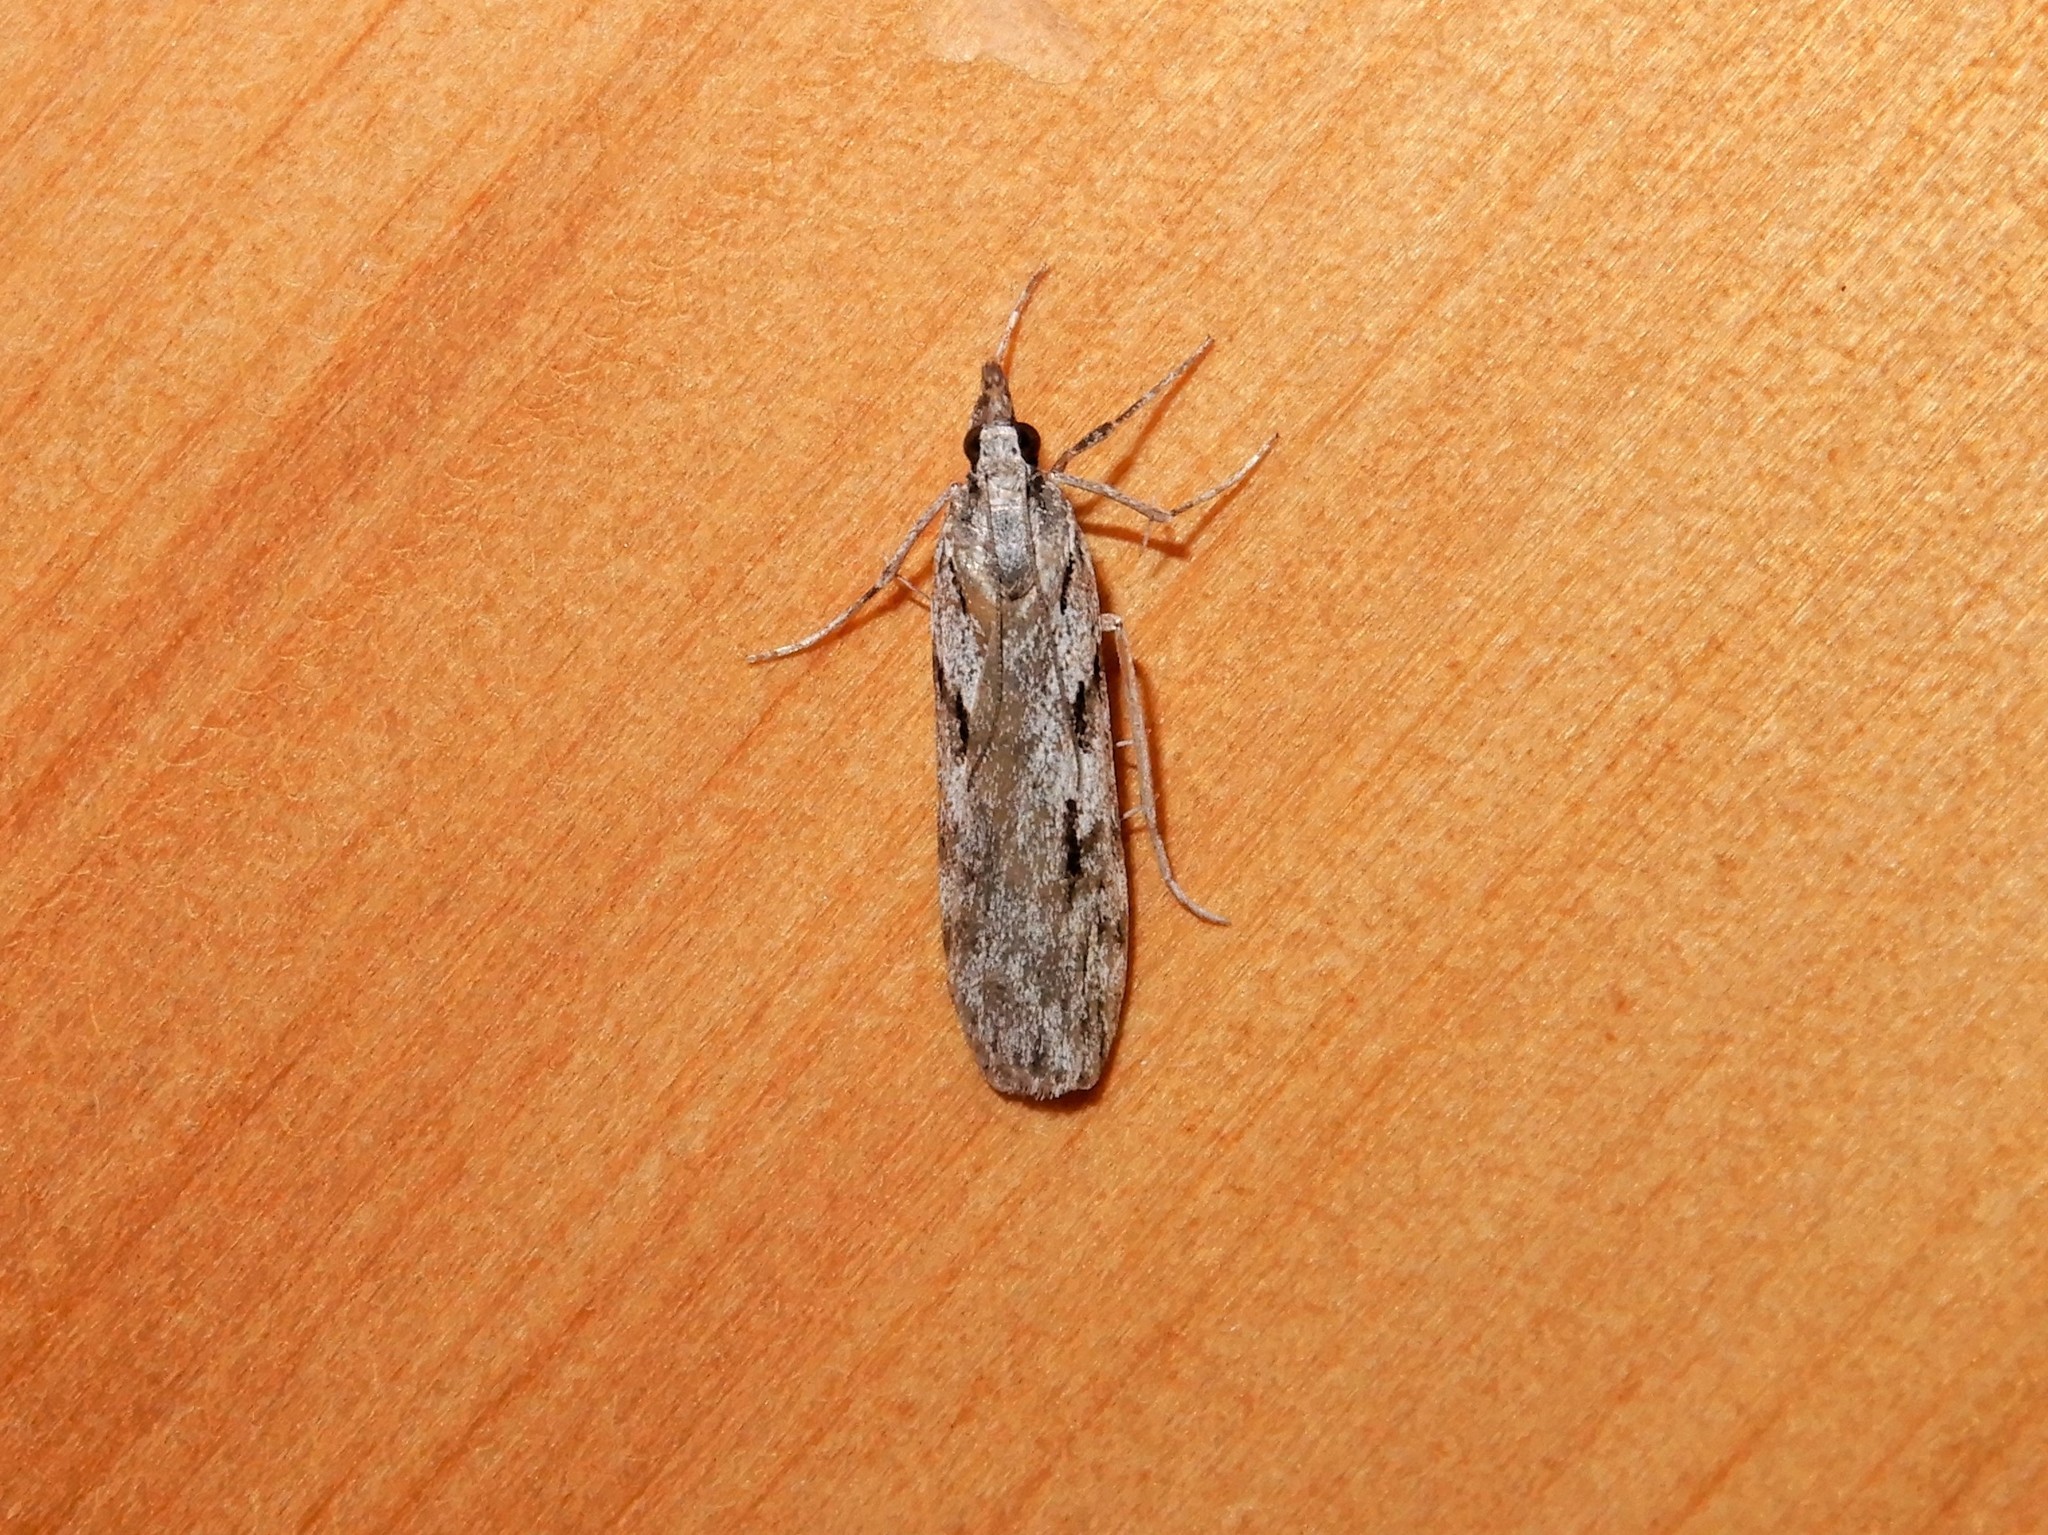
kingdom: Animalia
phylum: Arthropoda
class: Insecta
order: Lepidoptera
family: Crambidae
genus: Scoparia
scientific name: Scoparia halopis
